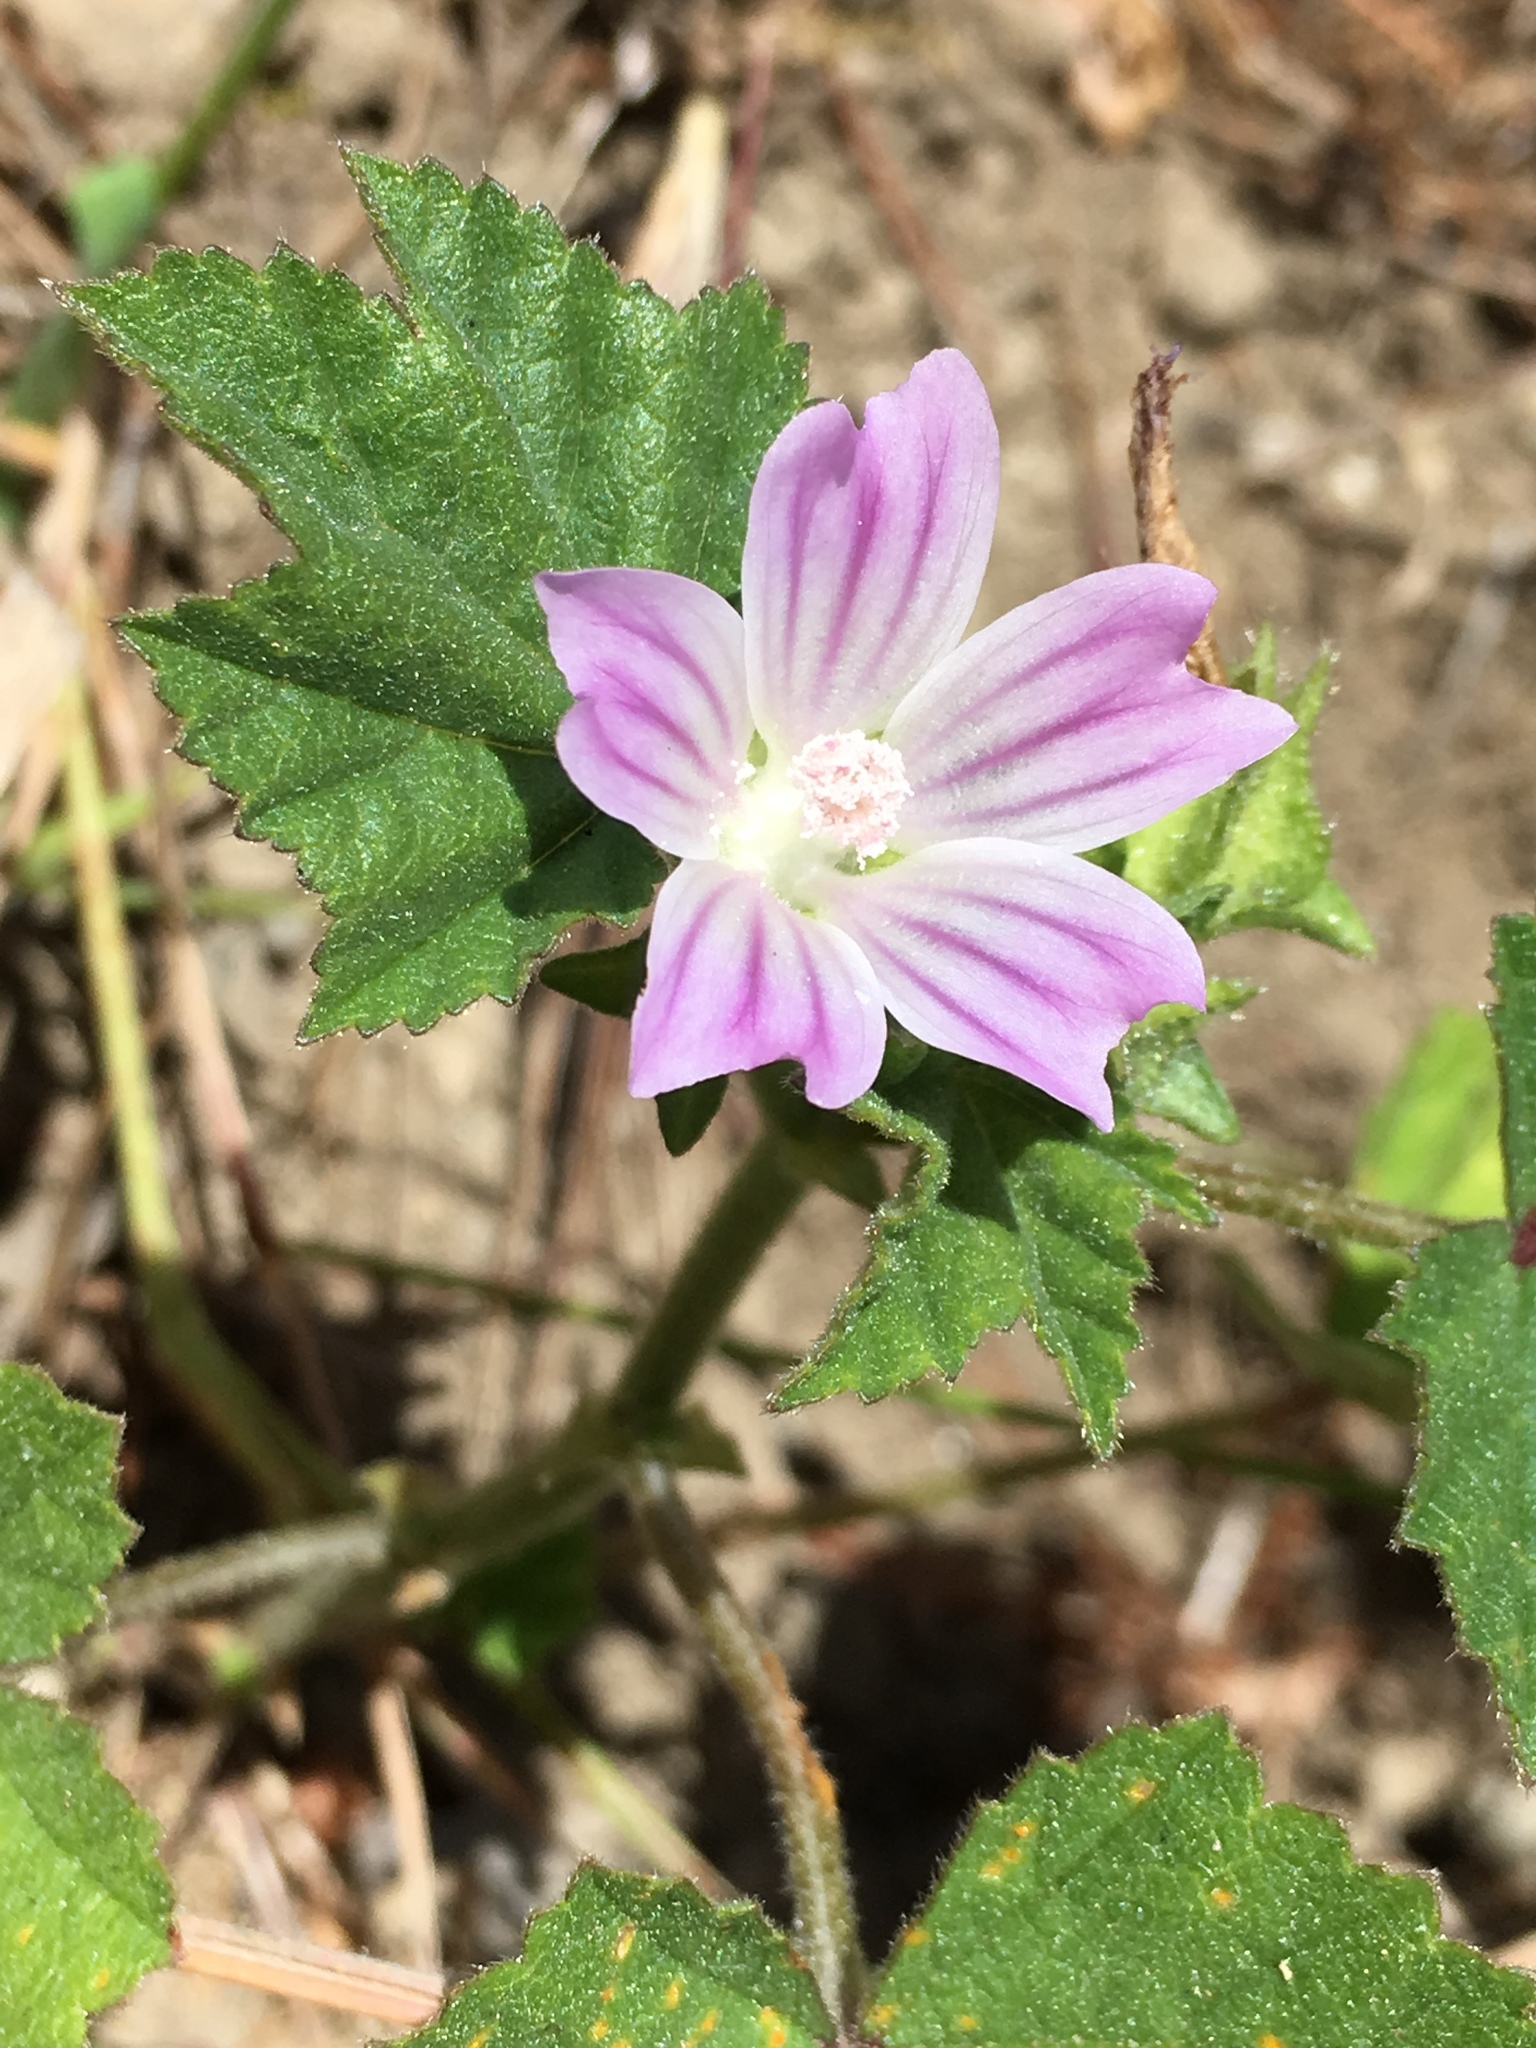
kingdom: Plantae
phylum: Tracheophyta
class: Magnoliopsida
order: Malvales
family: Malvaceae
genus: Malva
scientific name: Malva multiflora
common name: Cheeseweed
